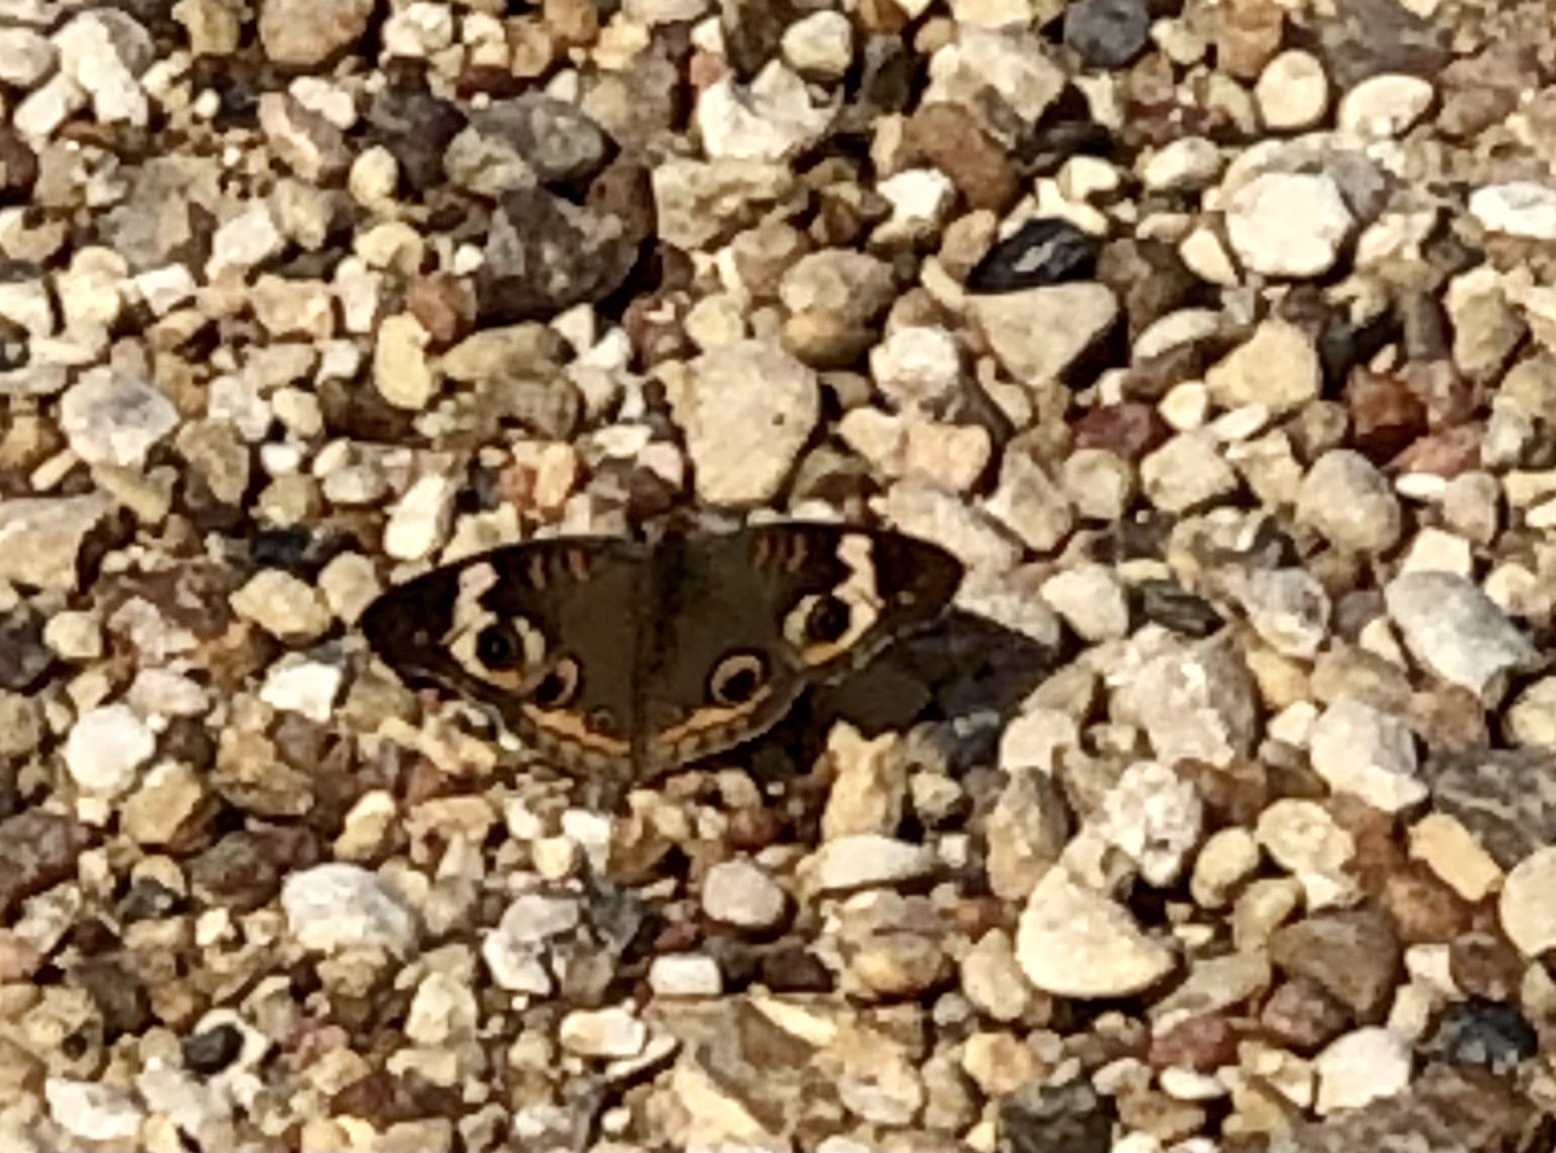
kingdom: Animalia
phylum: Arthropoda
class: Insecta
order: Lepidoptera
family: Nymphalidae
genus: Junonia
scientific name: Junonia coenia
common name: Common buckeye
